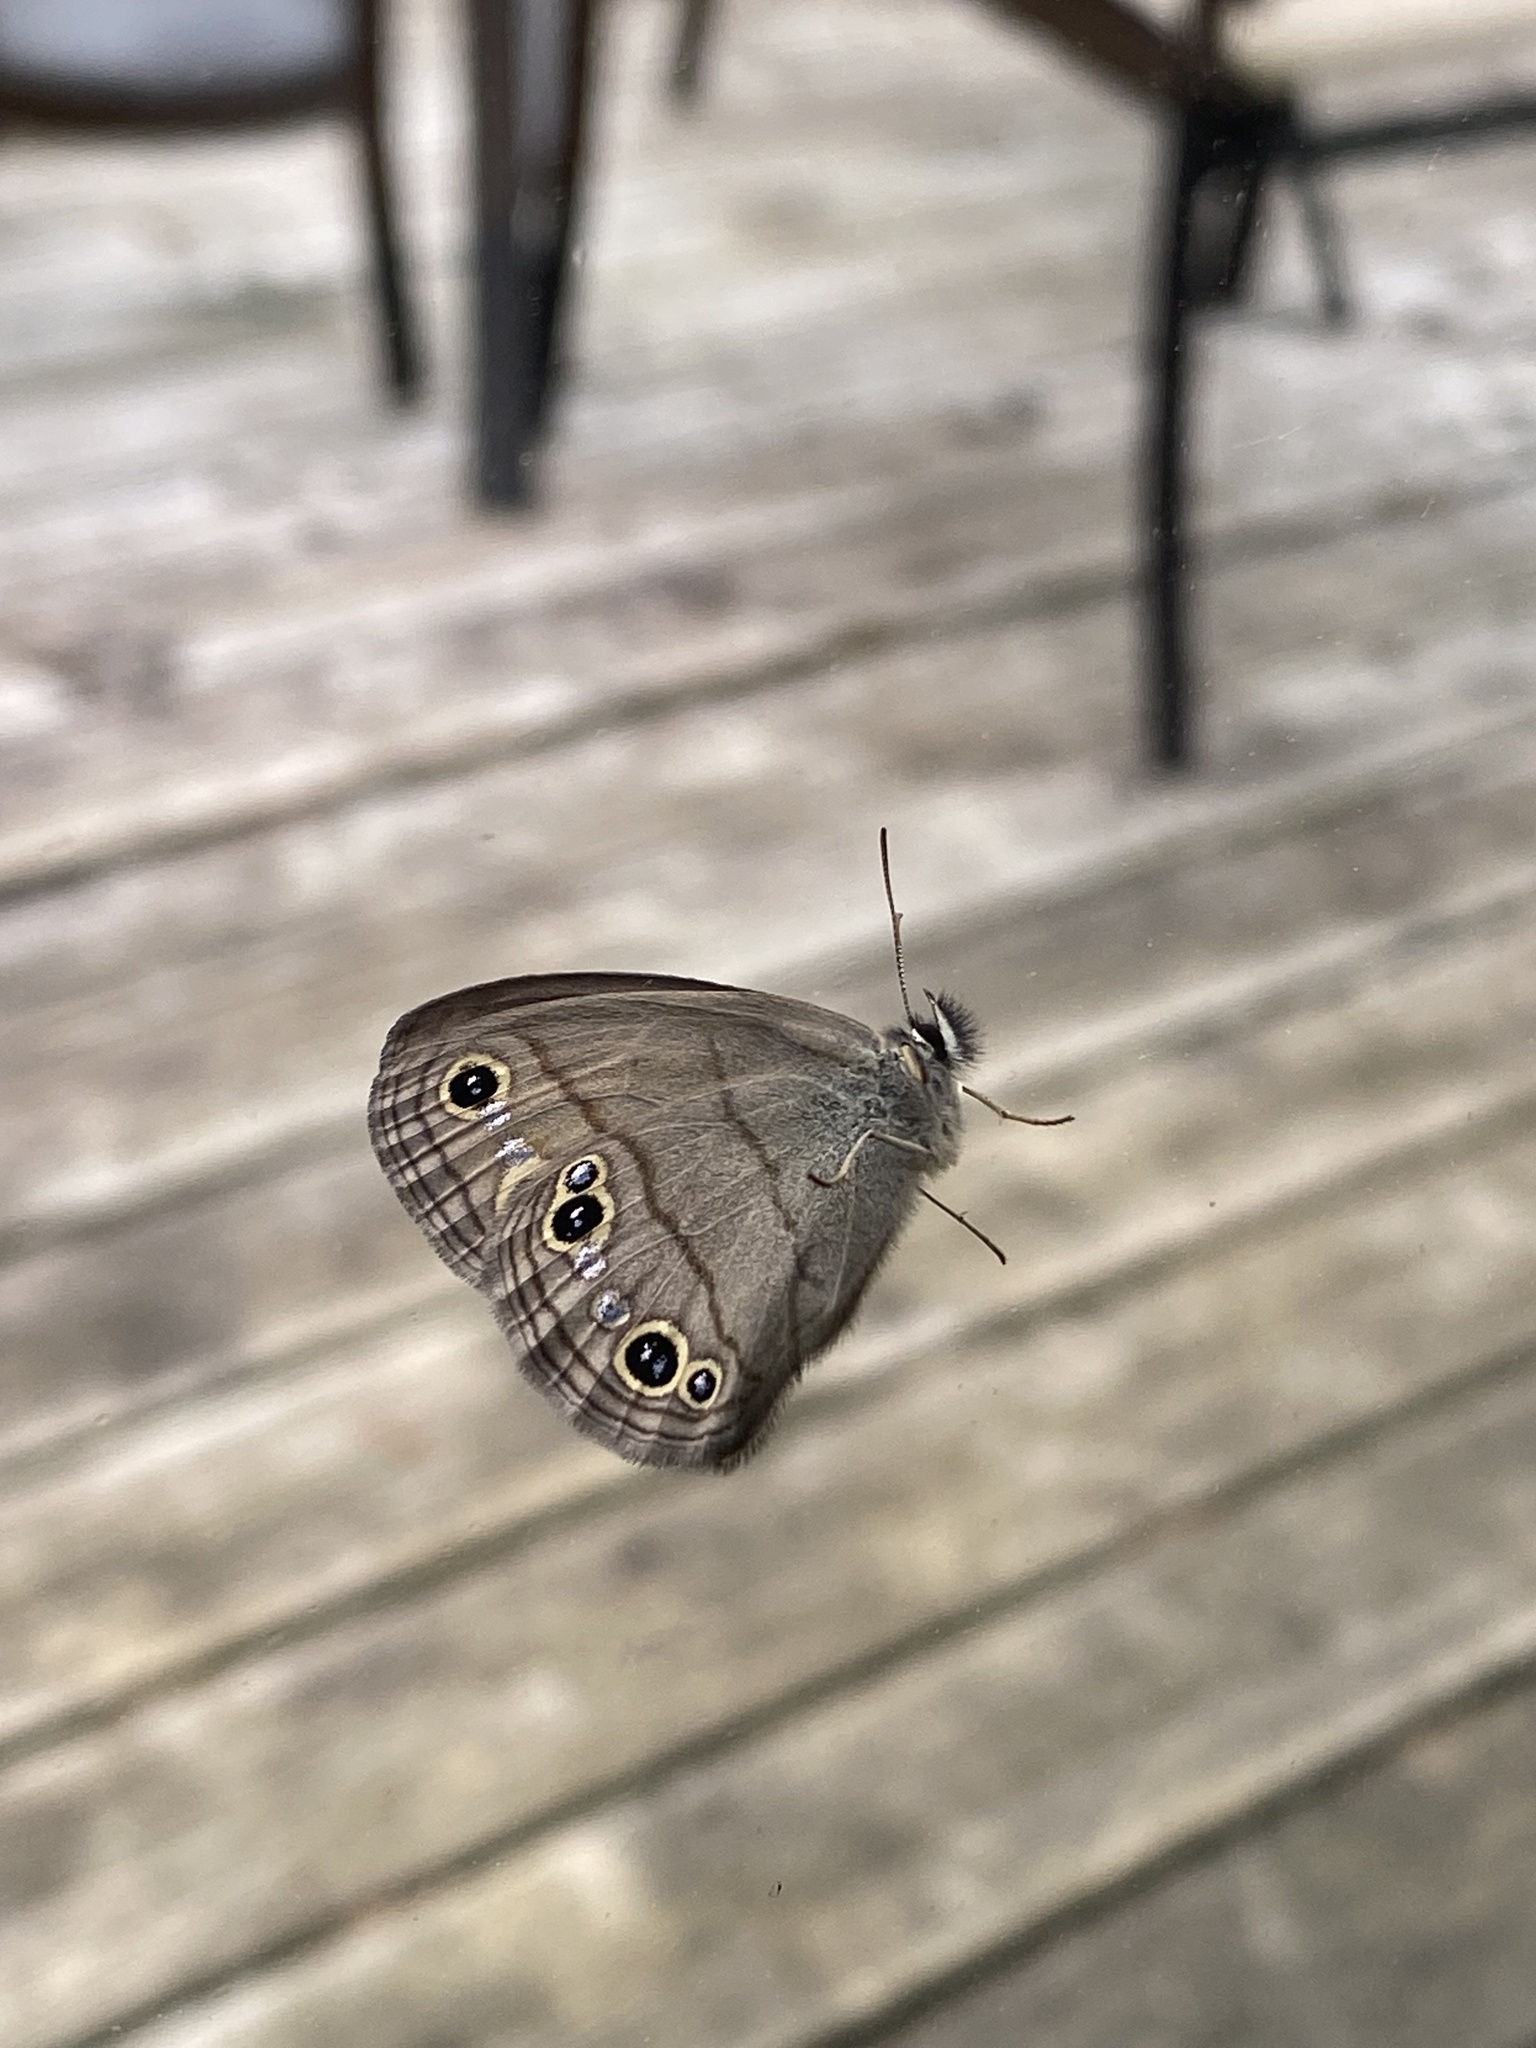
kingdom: Animalia
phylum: Arthropoda
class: Insecta
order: Lepidoptera
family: Nymphalidae
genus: Euptychia
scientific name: Euptychia cymela
